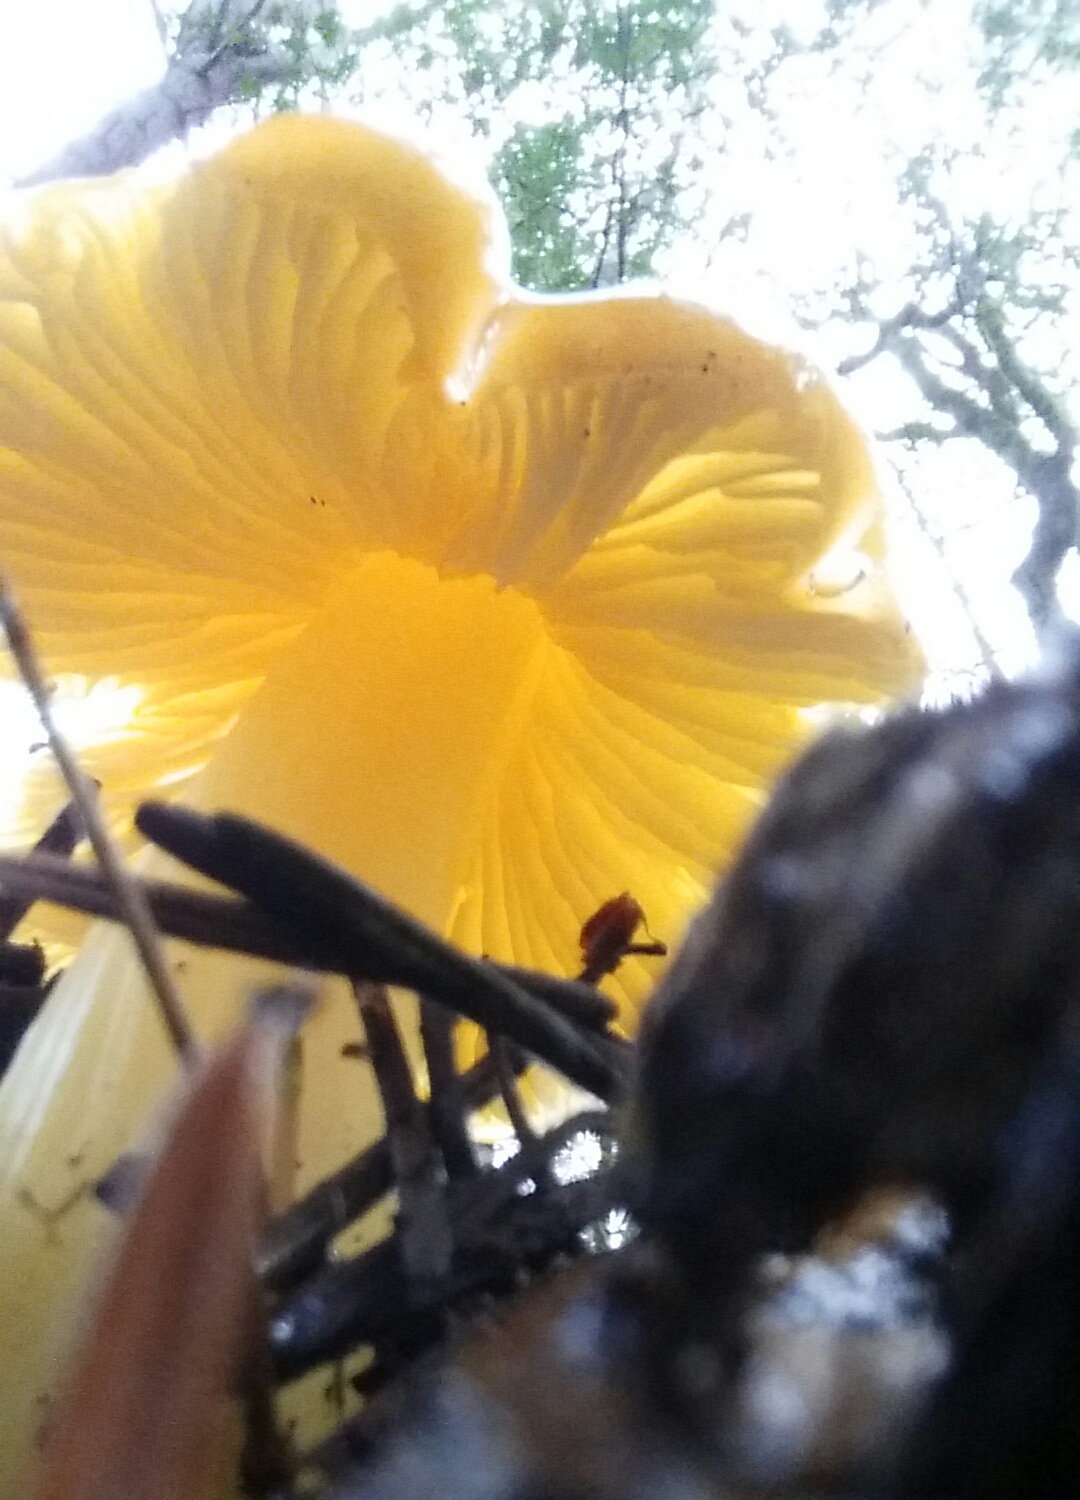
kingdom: Fungi
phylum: Basidiomycota
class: Agaricomycetes
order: Agaricales
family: Hygrophoraceae
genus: Hygrocybe
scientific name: Hygrocybe flavescens
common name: Golden waxy cap
